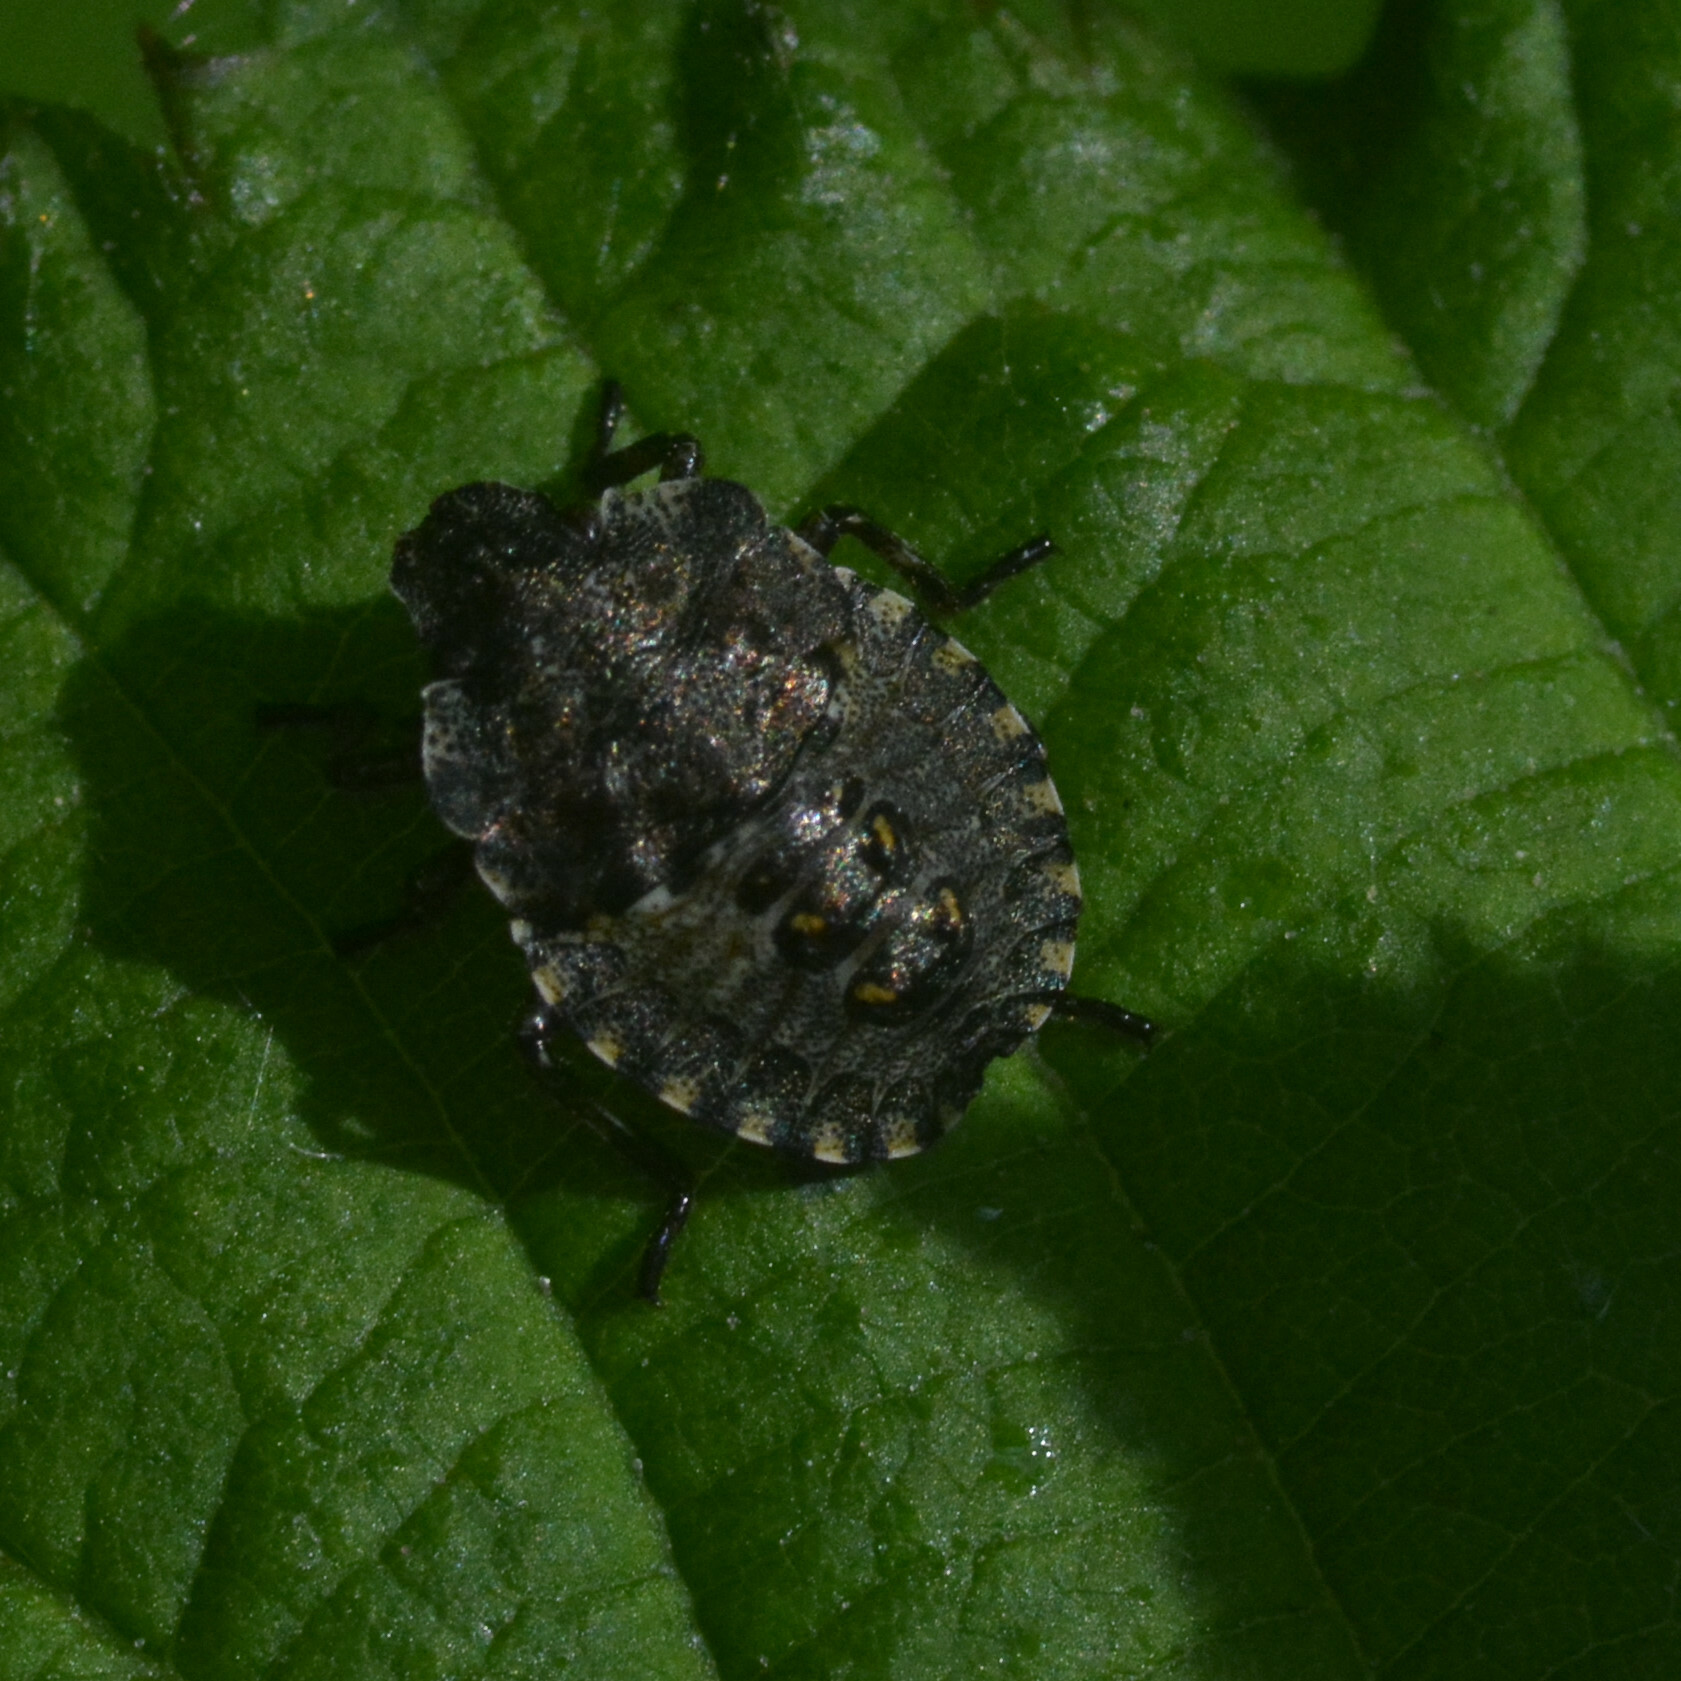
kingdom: Animalia
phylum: Arthropoda
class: Insecta
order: Hemiptera
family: Pentatomidae
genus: Pentatoma
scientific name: Pentatoma rufipes
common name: Forest bug
